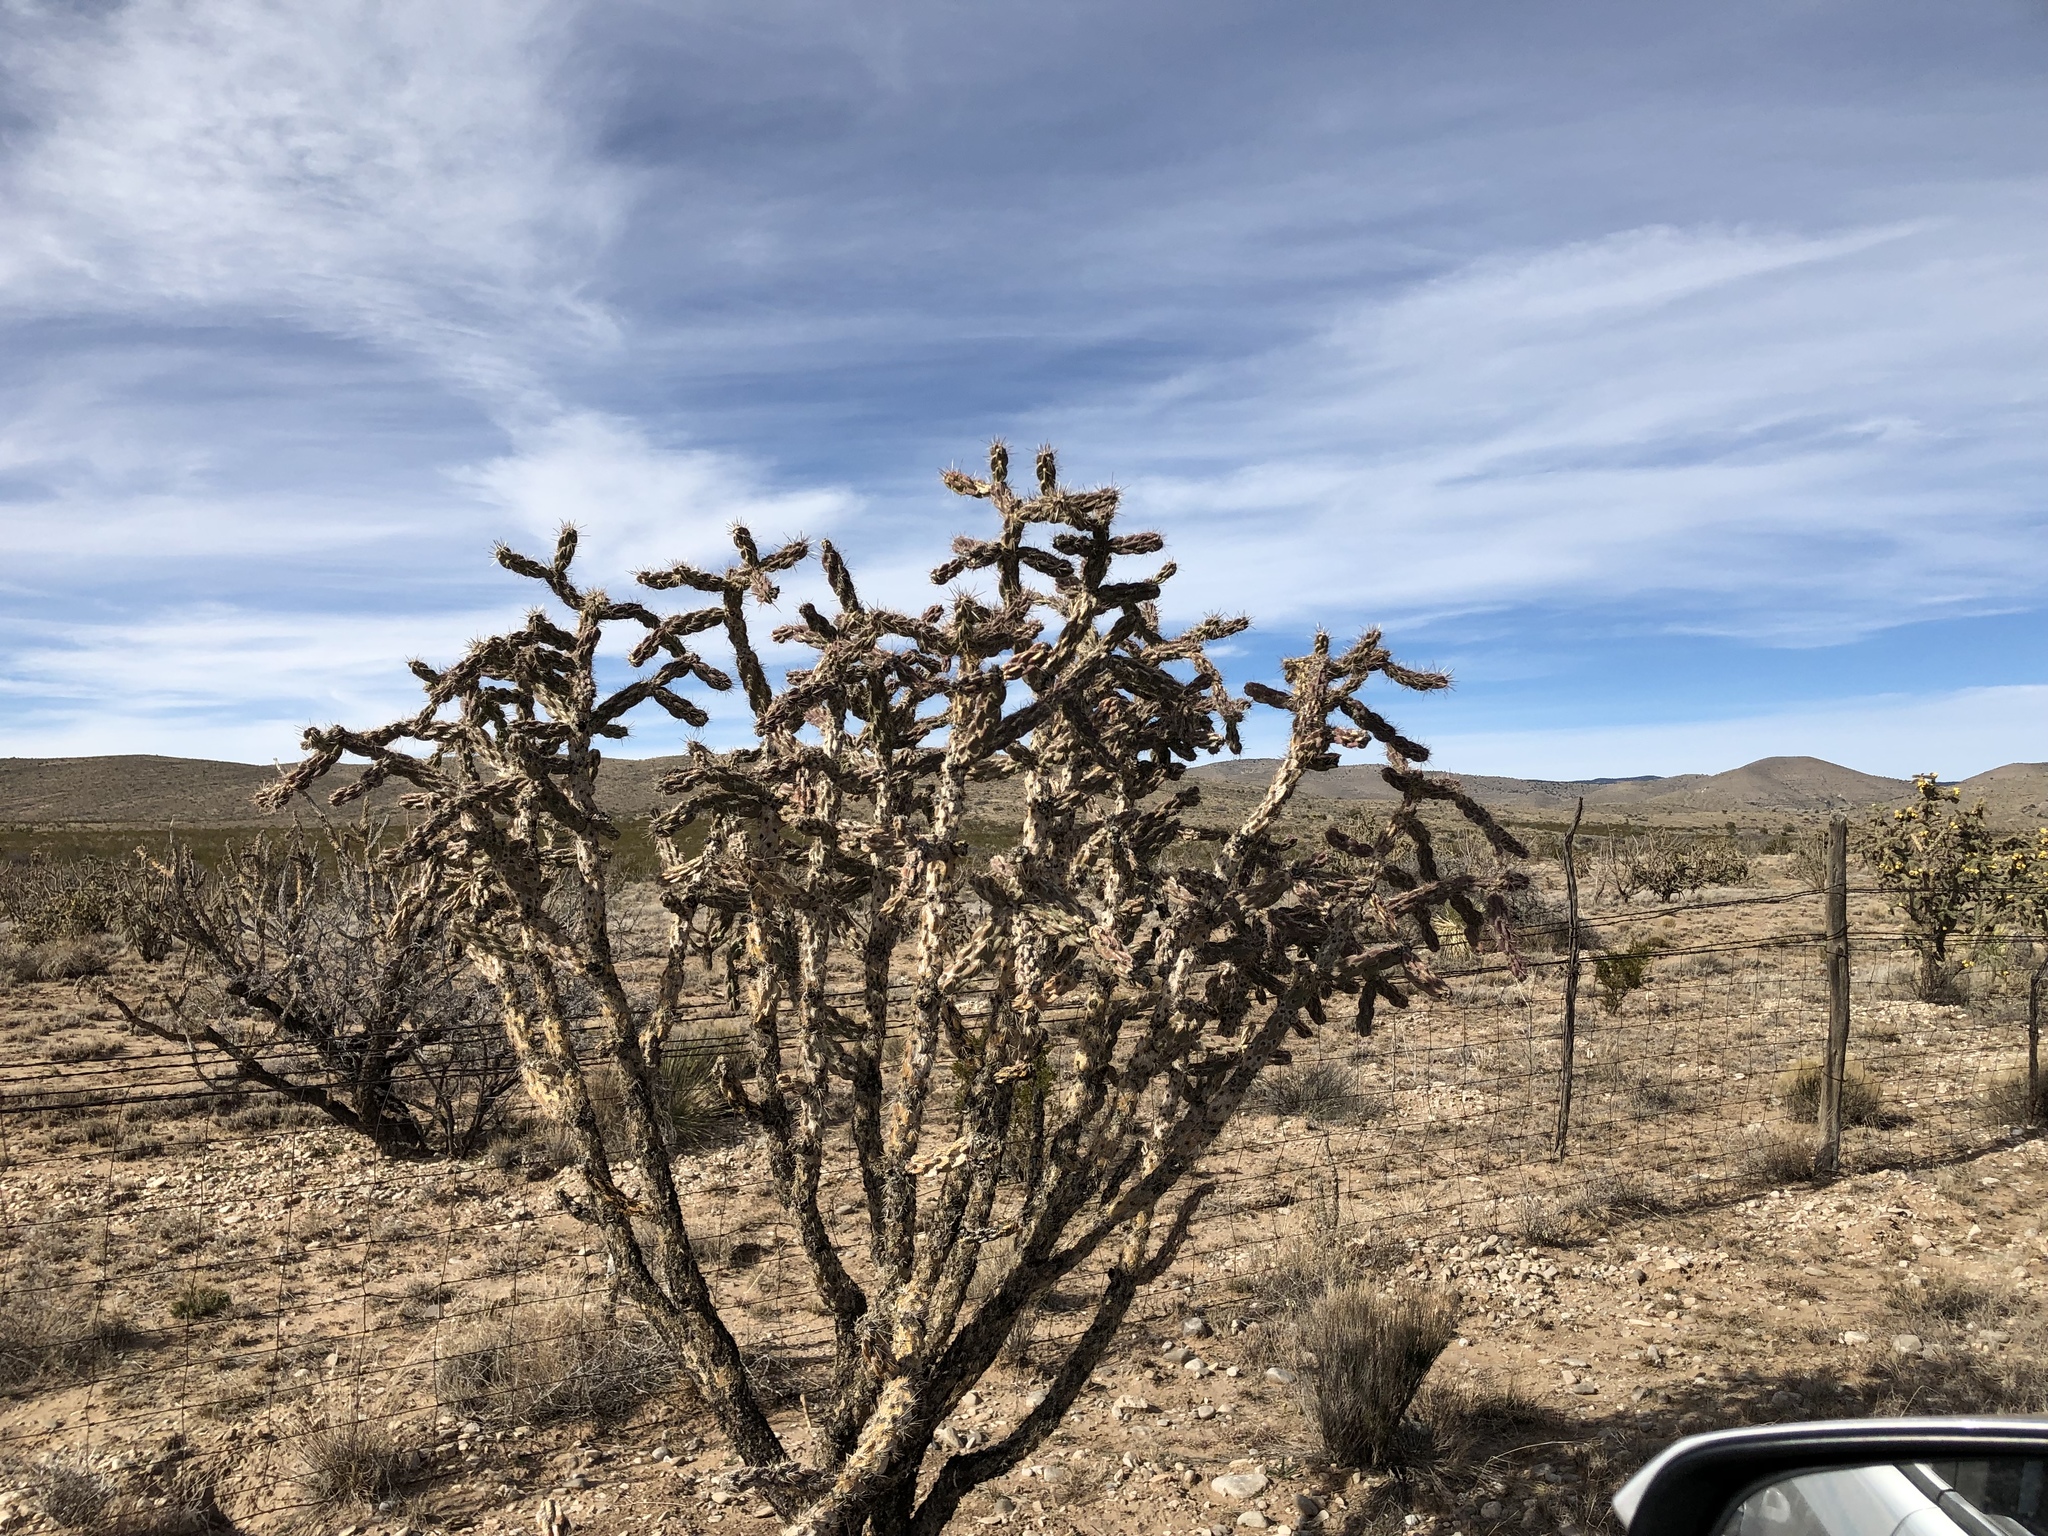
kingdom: Plantae
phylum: Tracheophyta
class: Magnoliopsida
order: Caryophyllales
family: Cactaceae
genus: Cylindropuntia
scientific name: Cylindropuntia imbricata
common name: Candelabrum cactus
